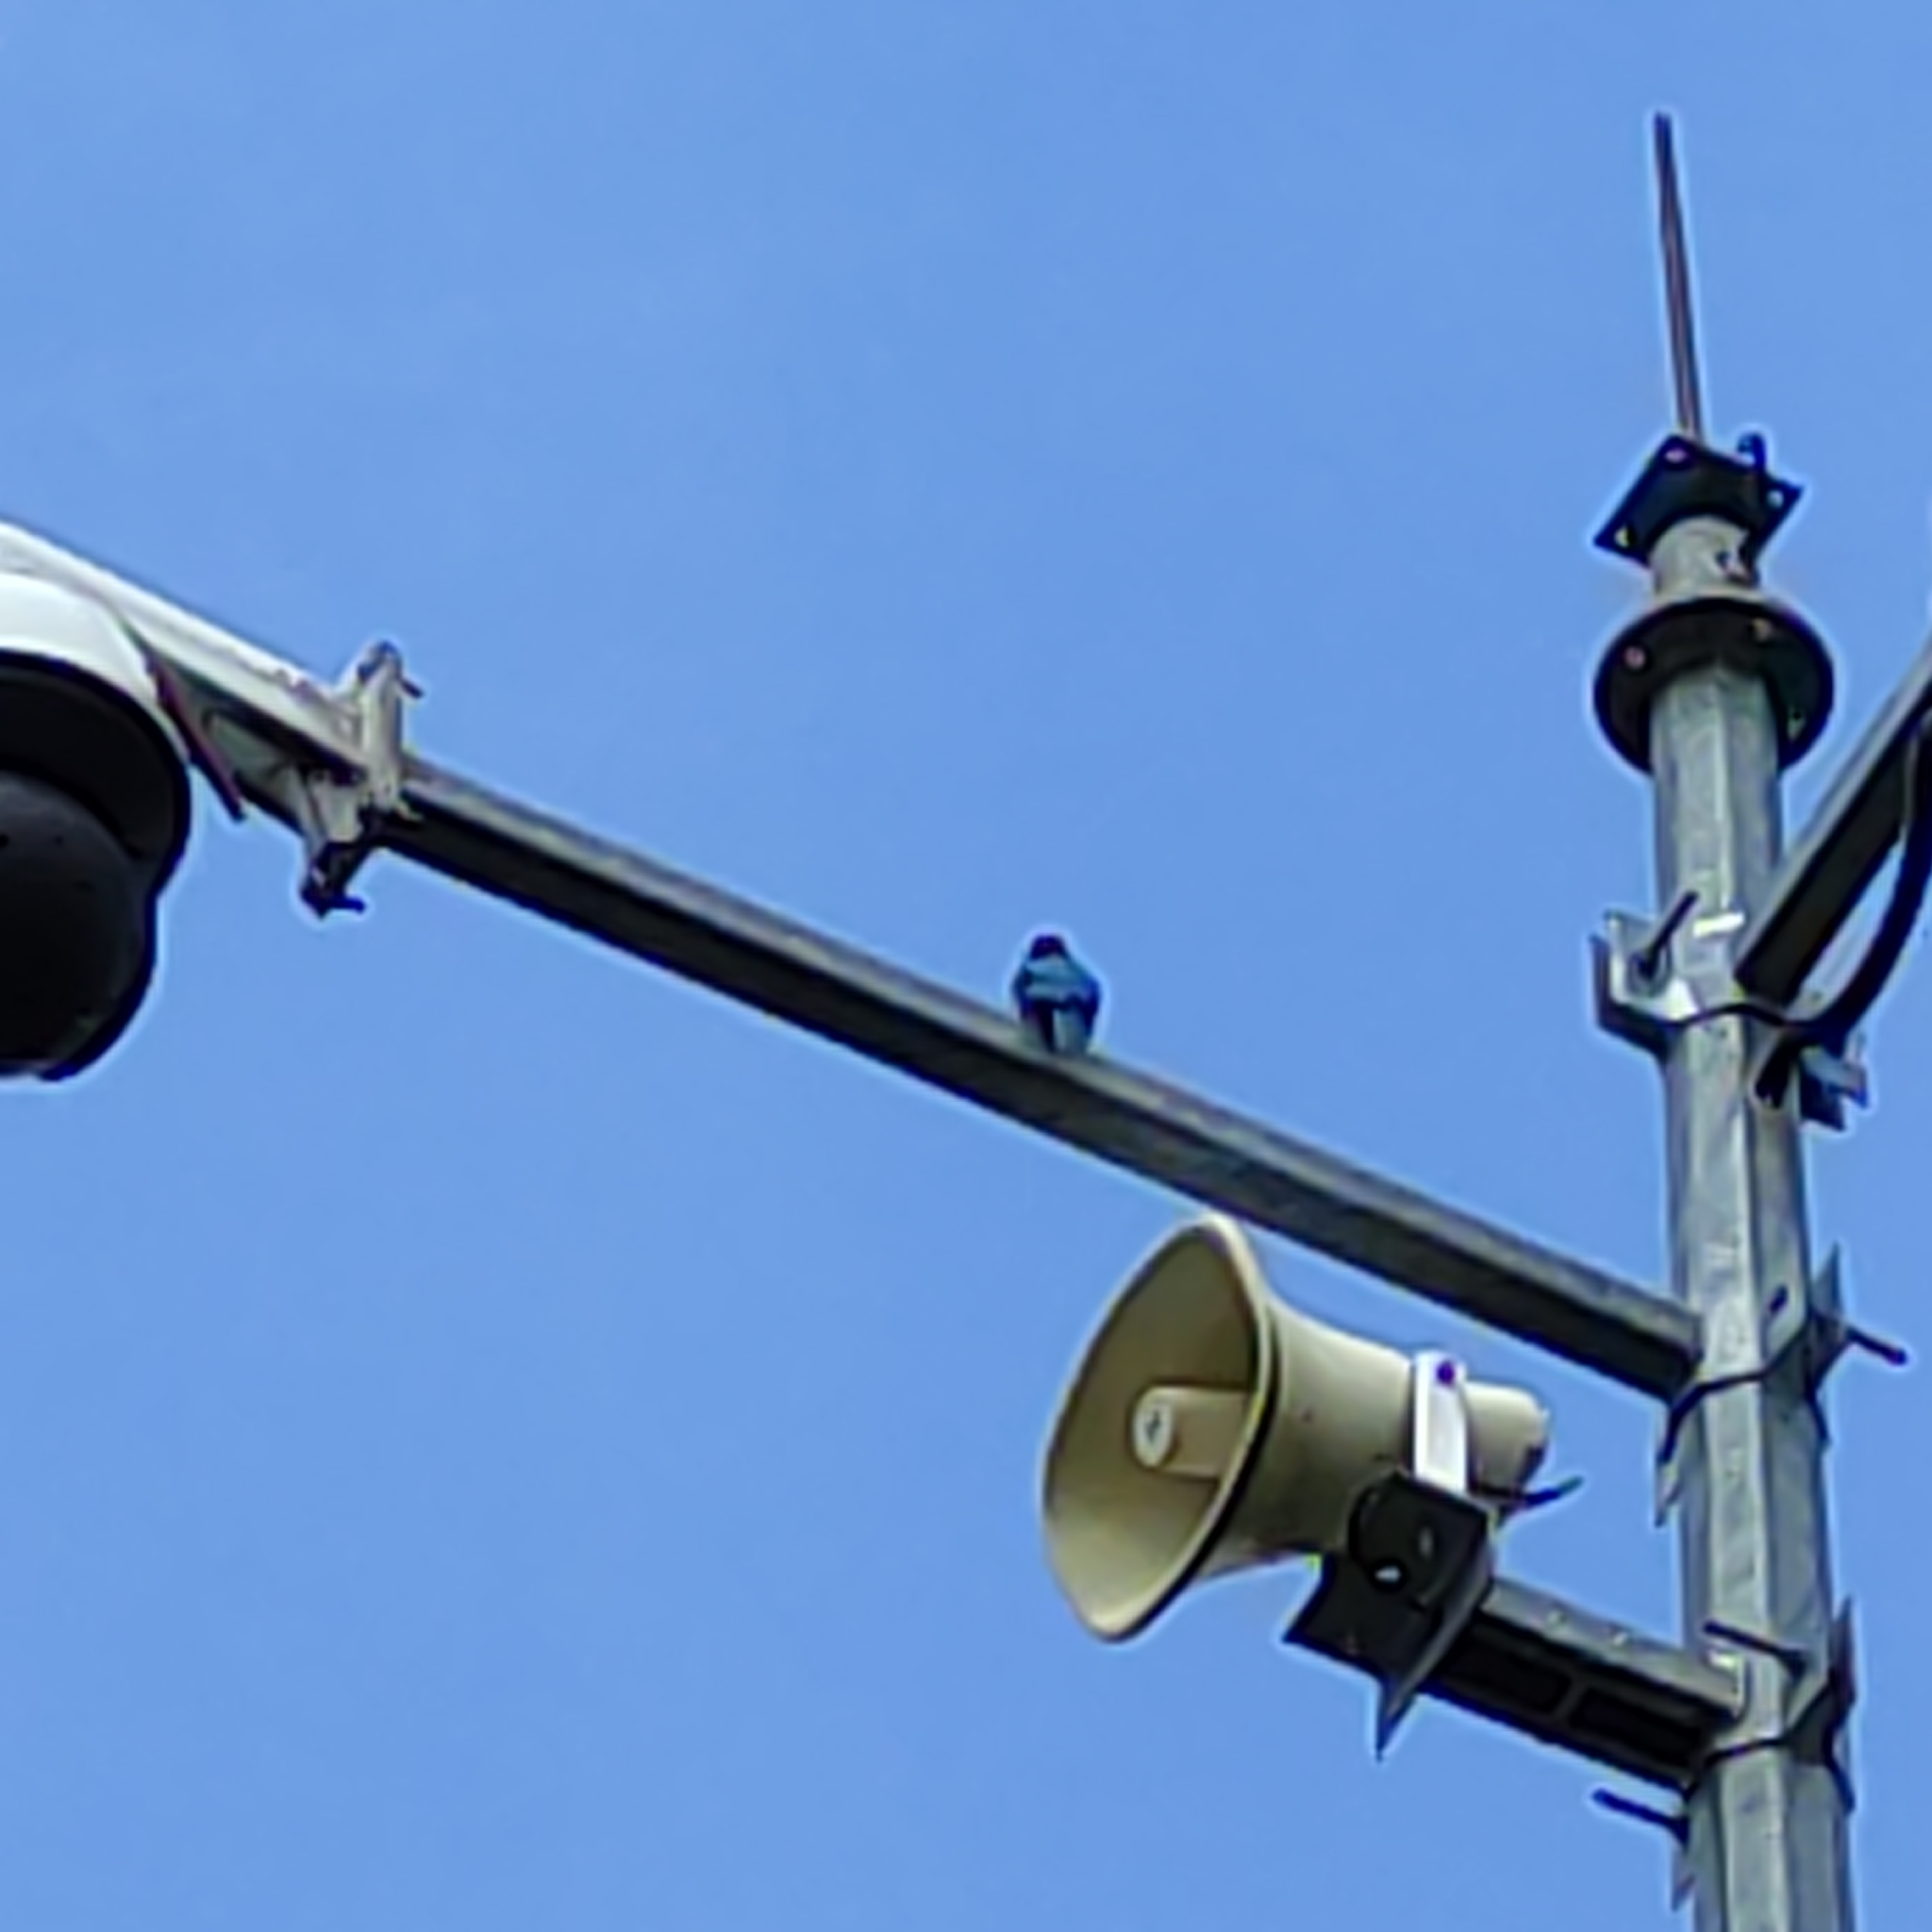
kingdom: Animalia
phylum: Chordata
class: Aves
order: Coraciiformes
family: Alcedinidae
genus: Halcyon
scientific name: Halcyon smyrnensis
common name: White-throated kingfisher
